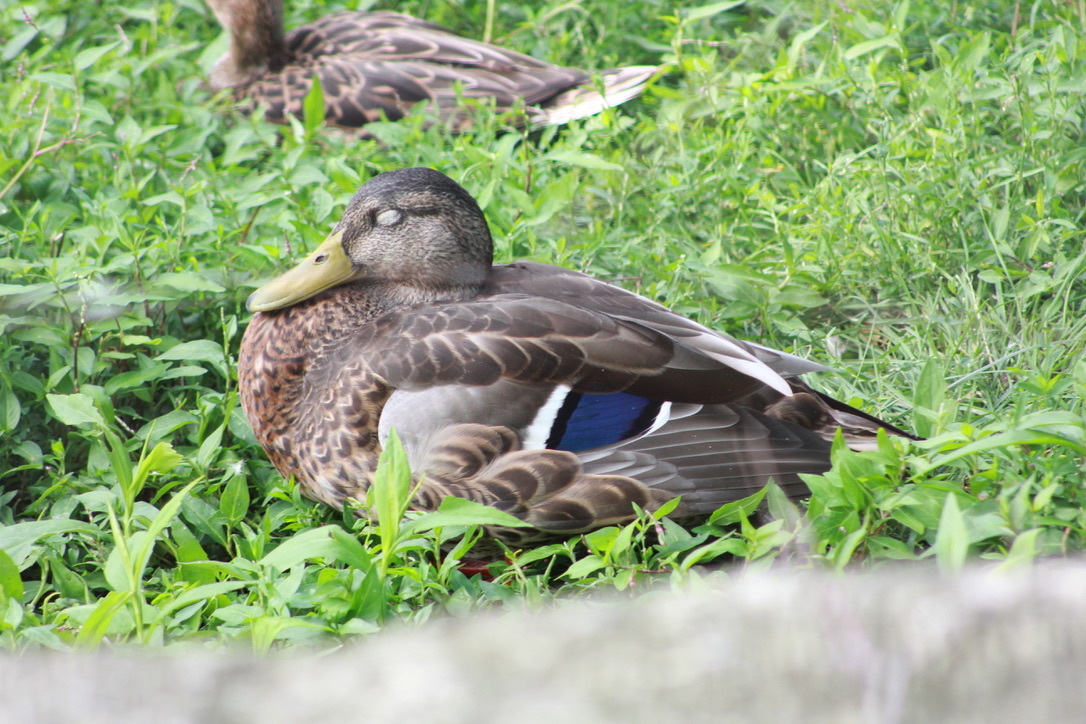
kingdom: Animalia
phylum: Chordata
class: Aves
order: Anseriformes
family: Anatidae
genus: Anas
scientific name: Anas platyrhynchos
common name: Mallard
